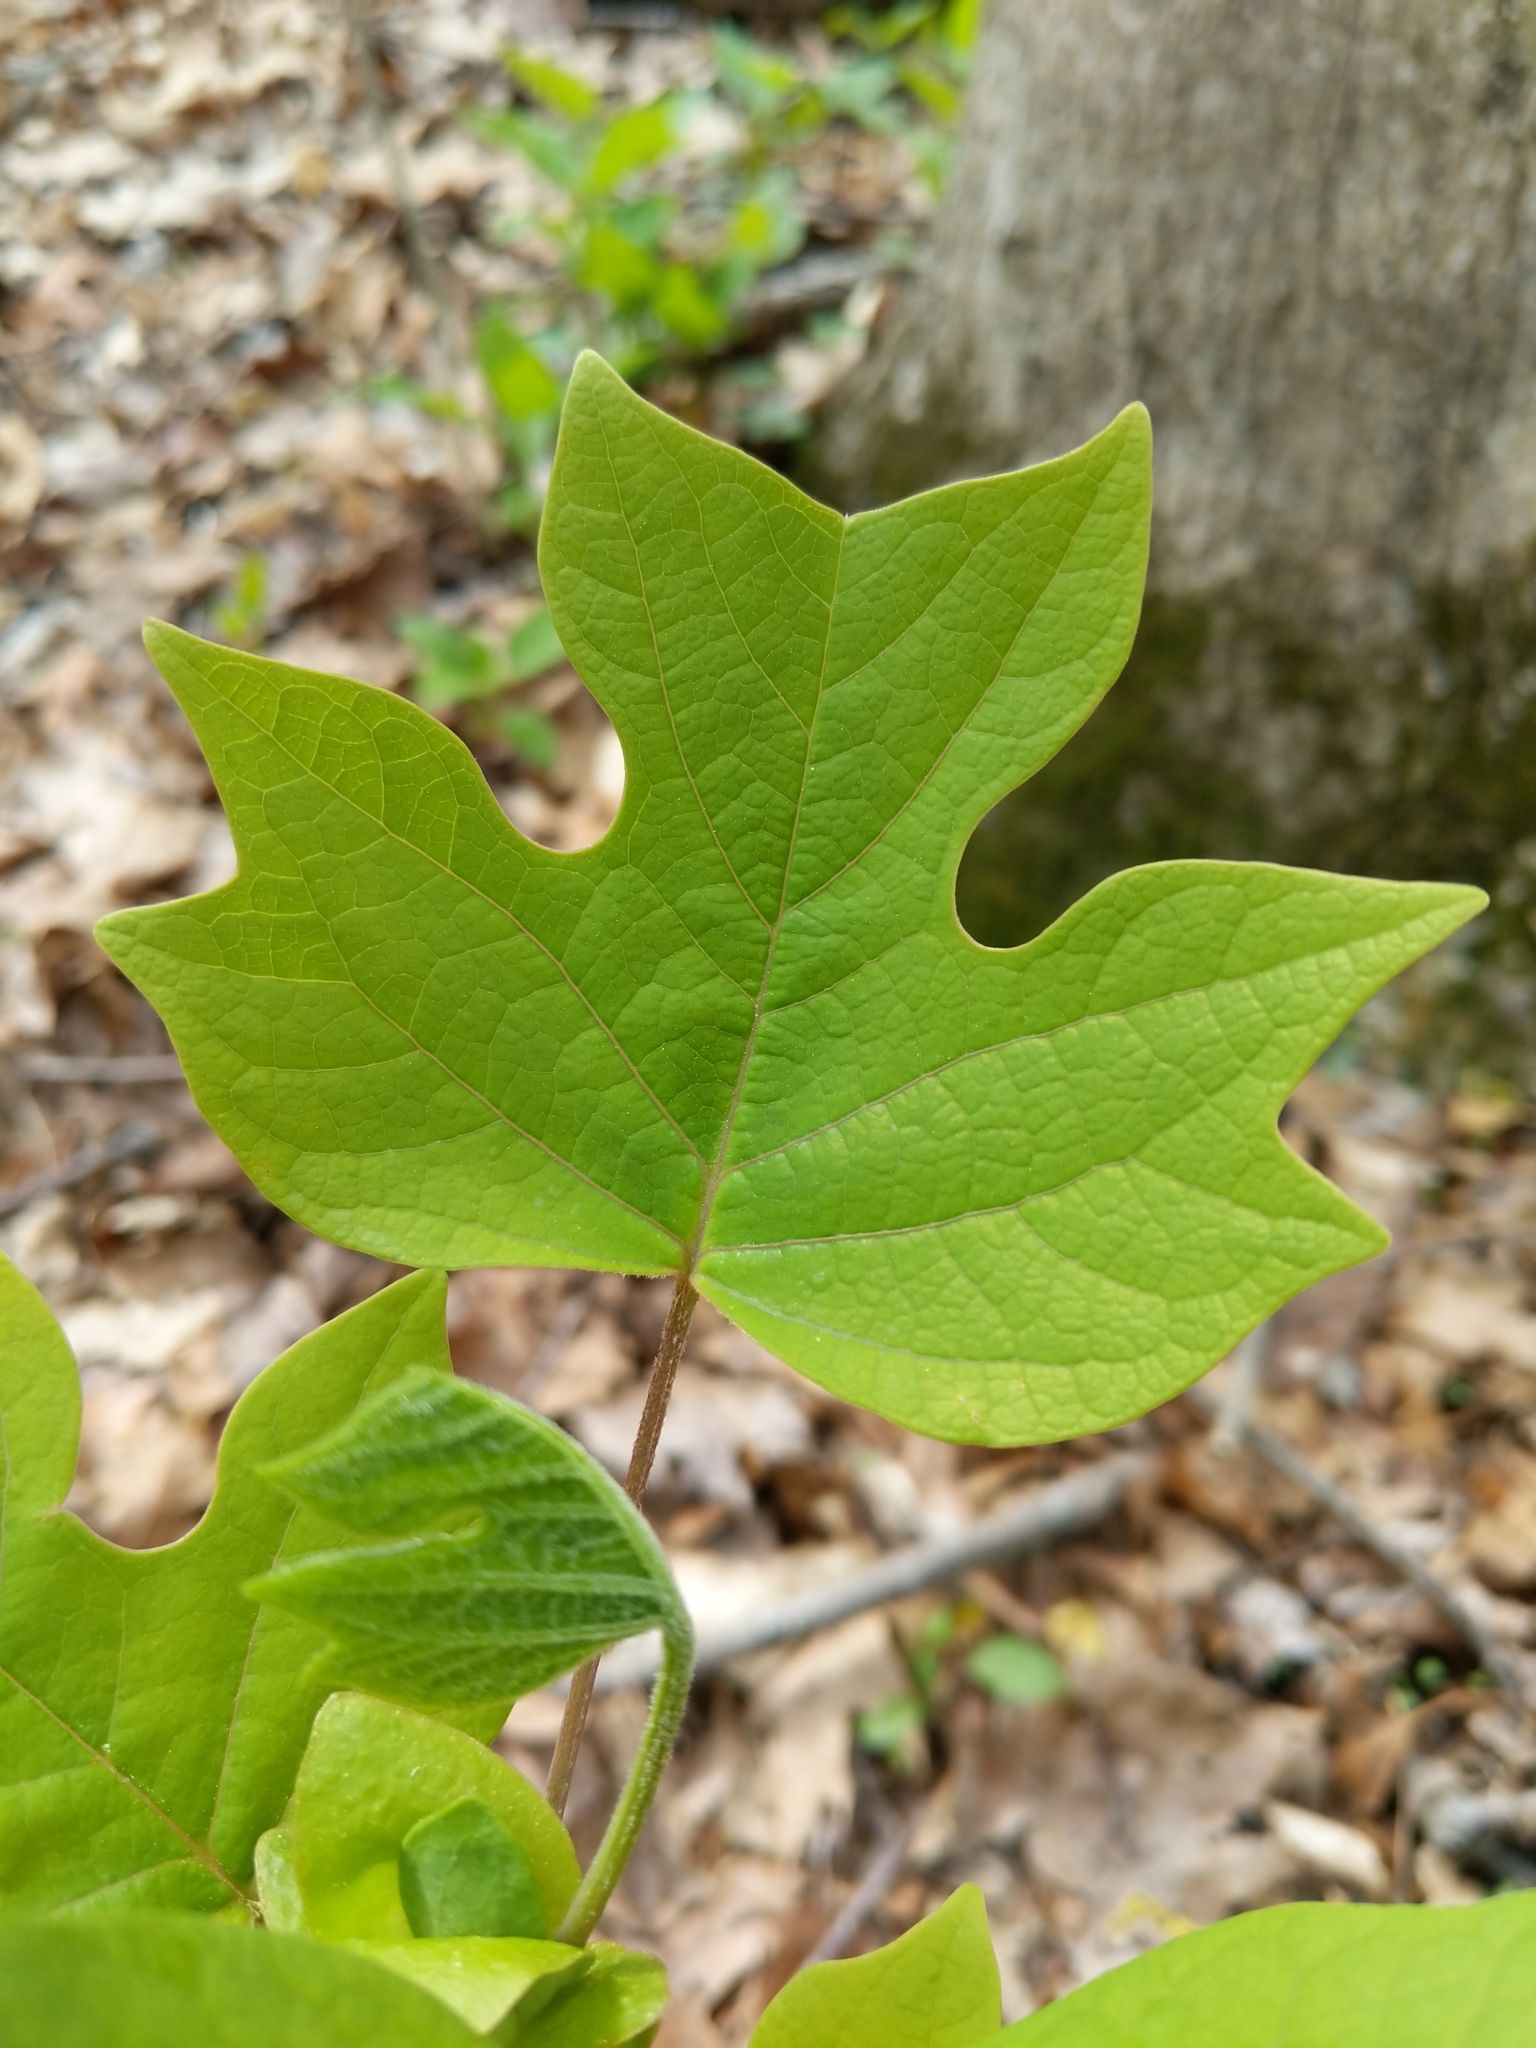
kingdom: Plantae
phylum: Tracheophyta
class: Magnoliopsida
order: Magnoliales
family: Magnoliaceae
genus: Liriodendron
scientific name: Liriodendron tulipifera
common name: Tulip tree
